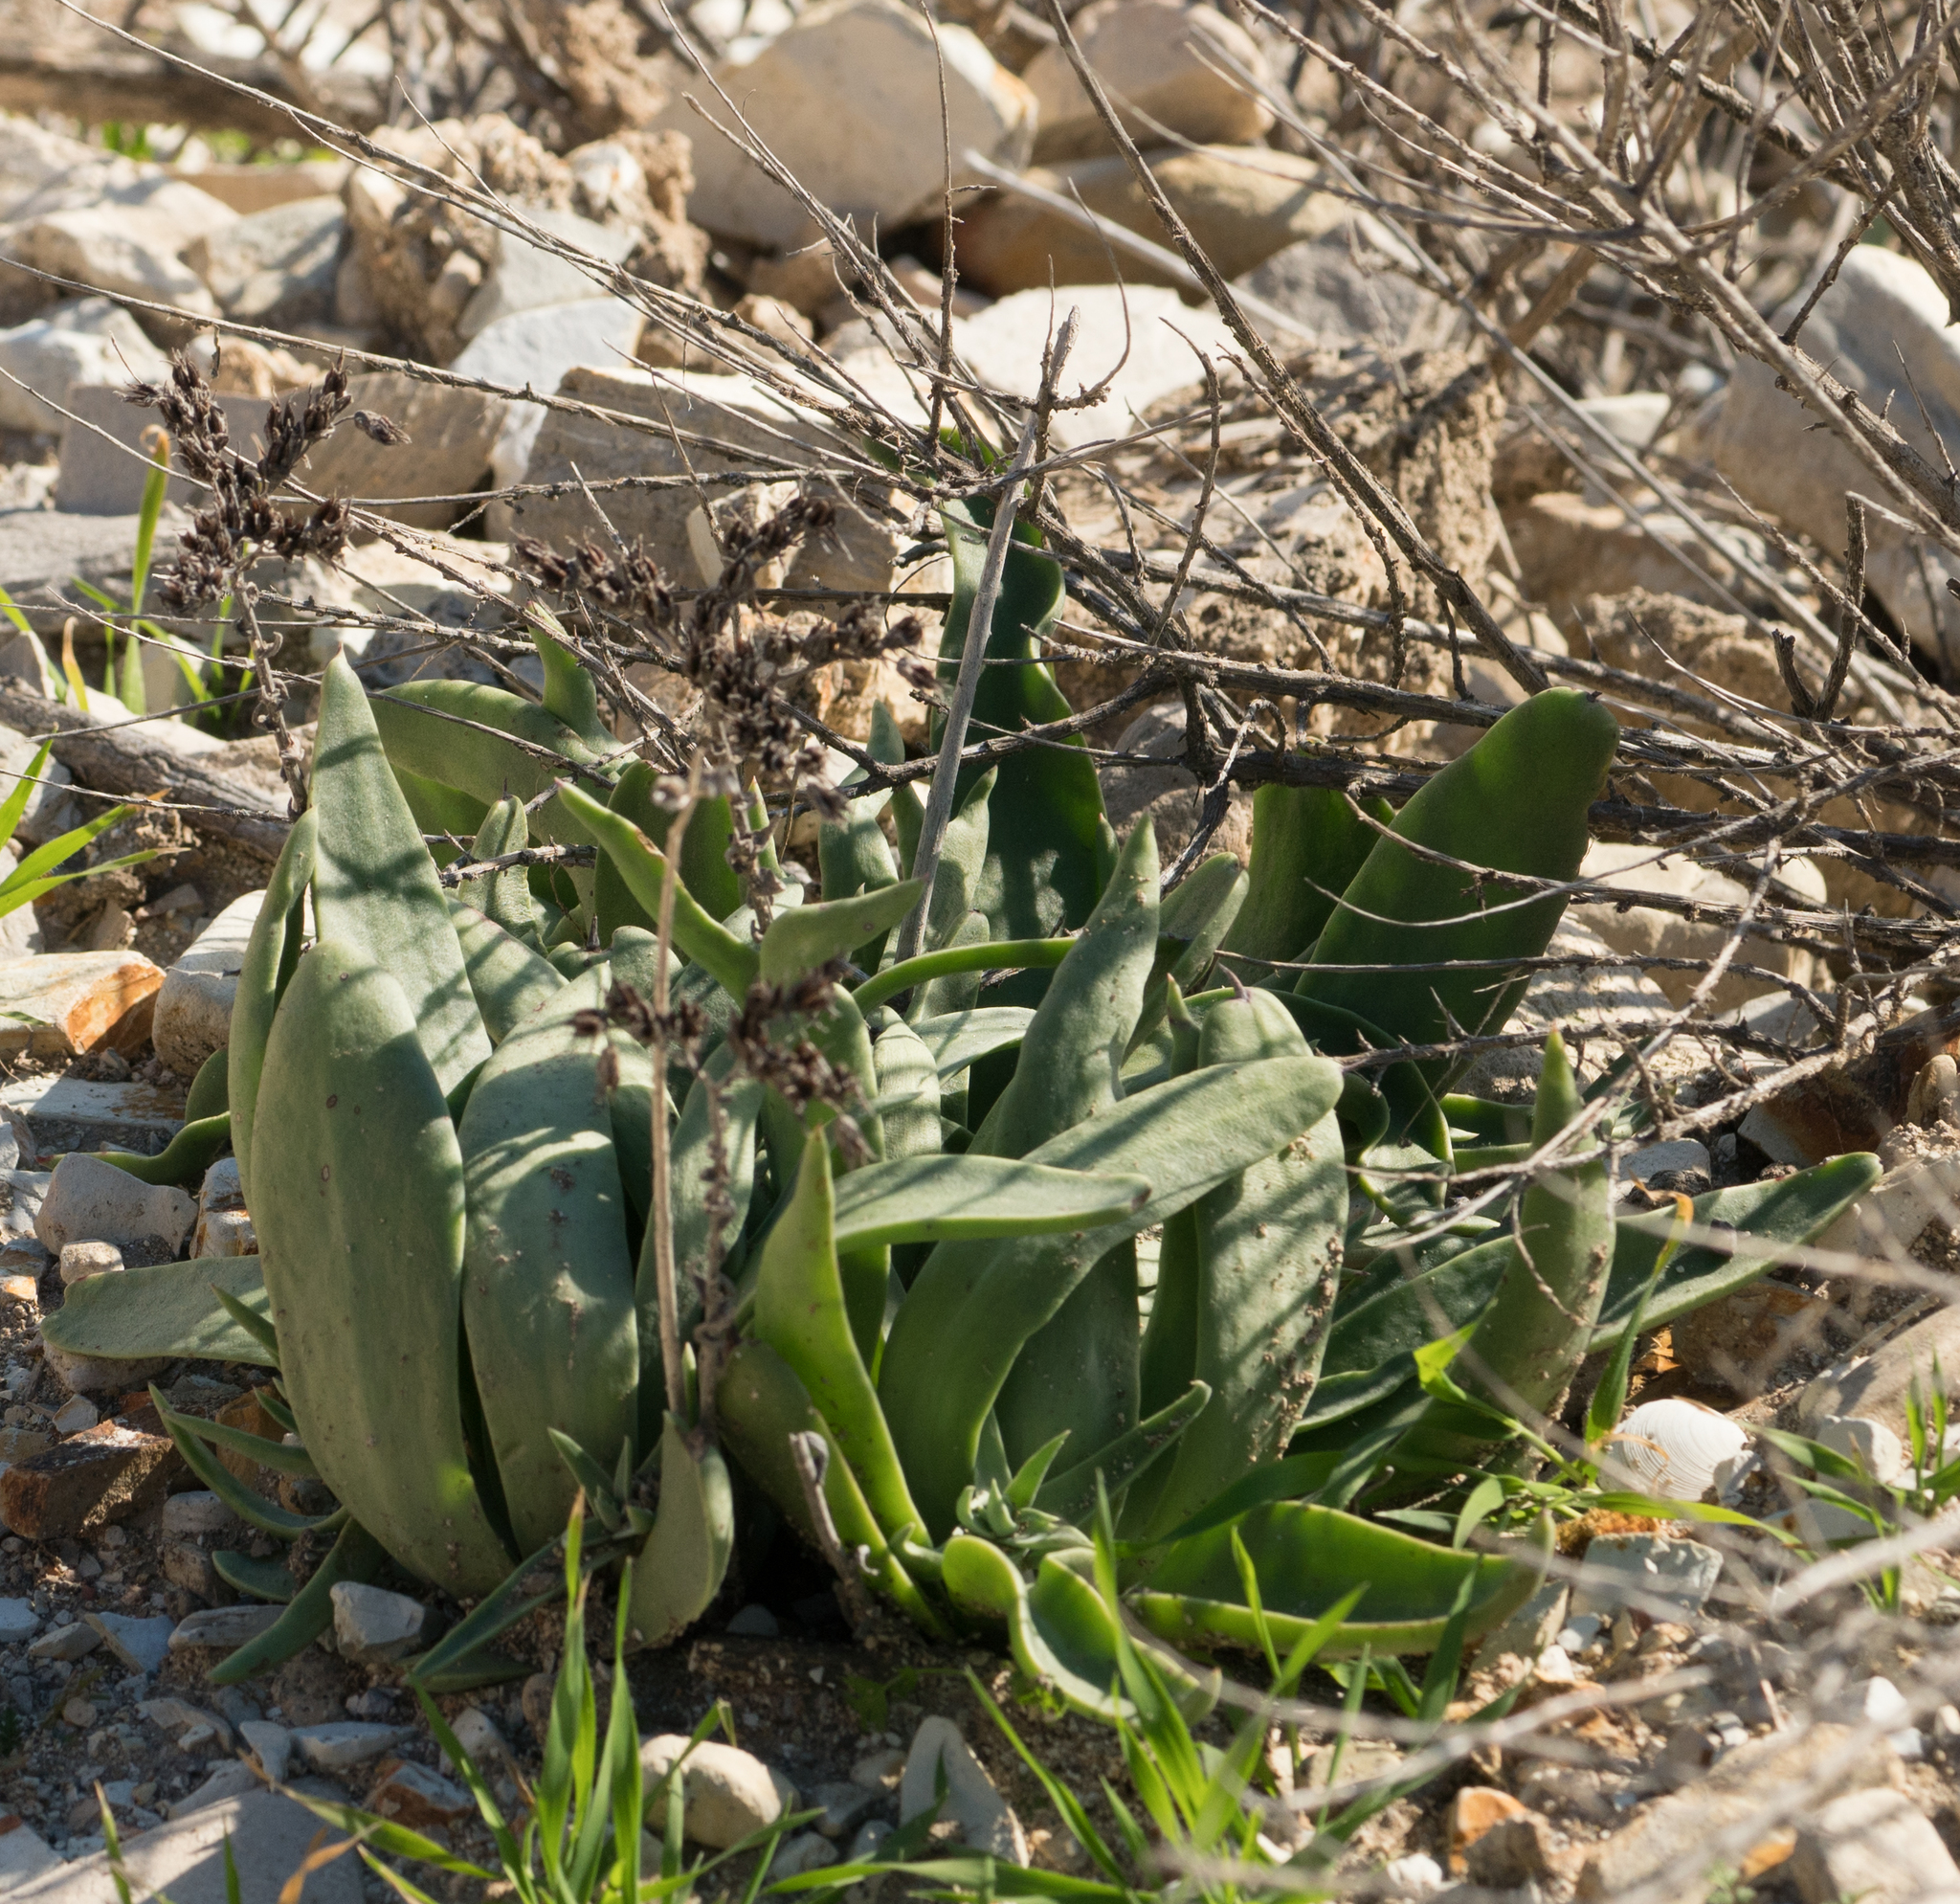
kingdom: Plantae
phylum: Tracheophyta
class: Magnoliopsida
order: Saxifragales
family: Crassulaceae
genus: Dudleya
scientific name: Dudleya lanceolata
